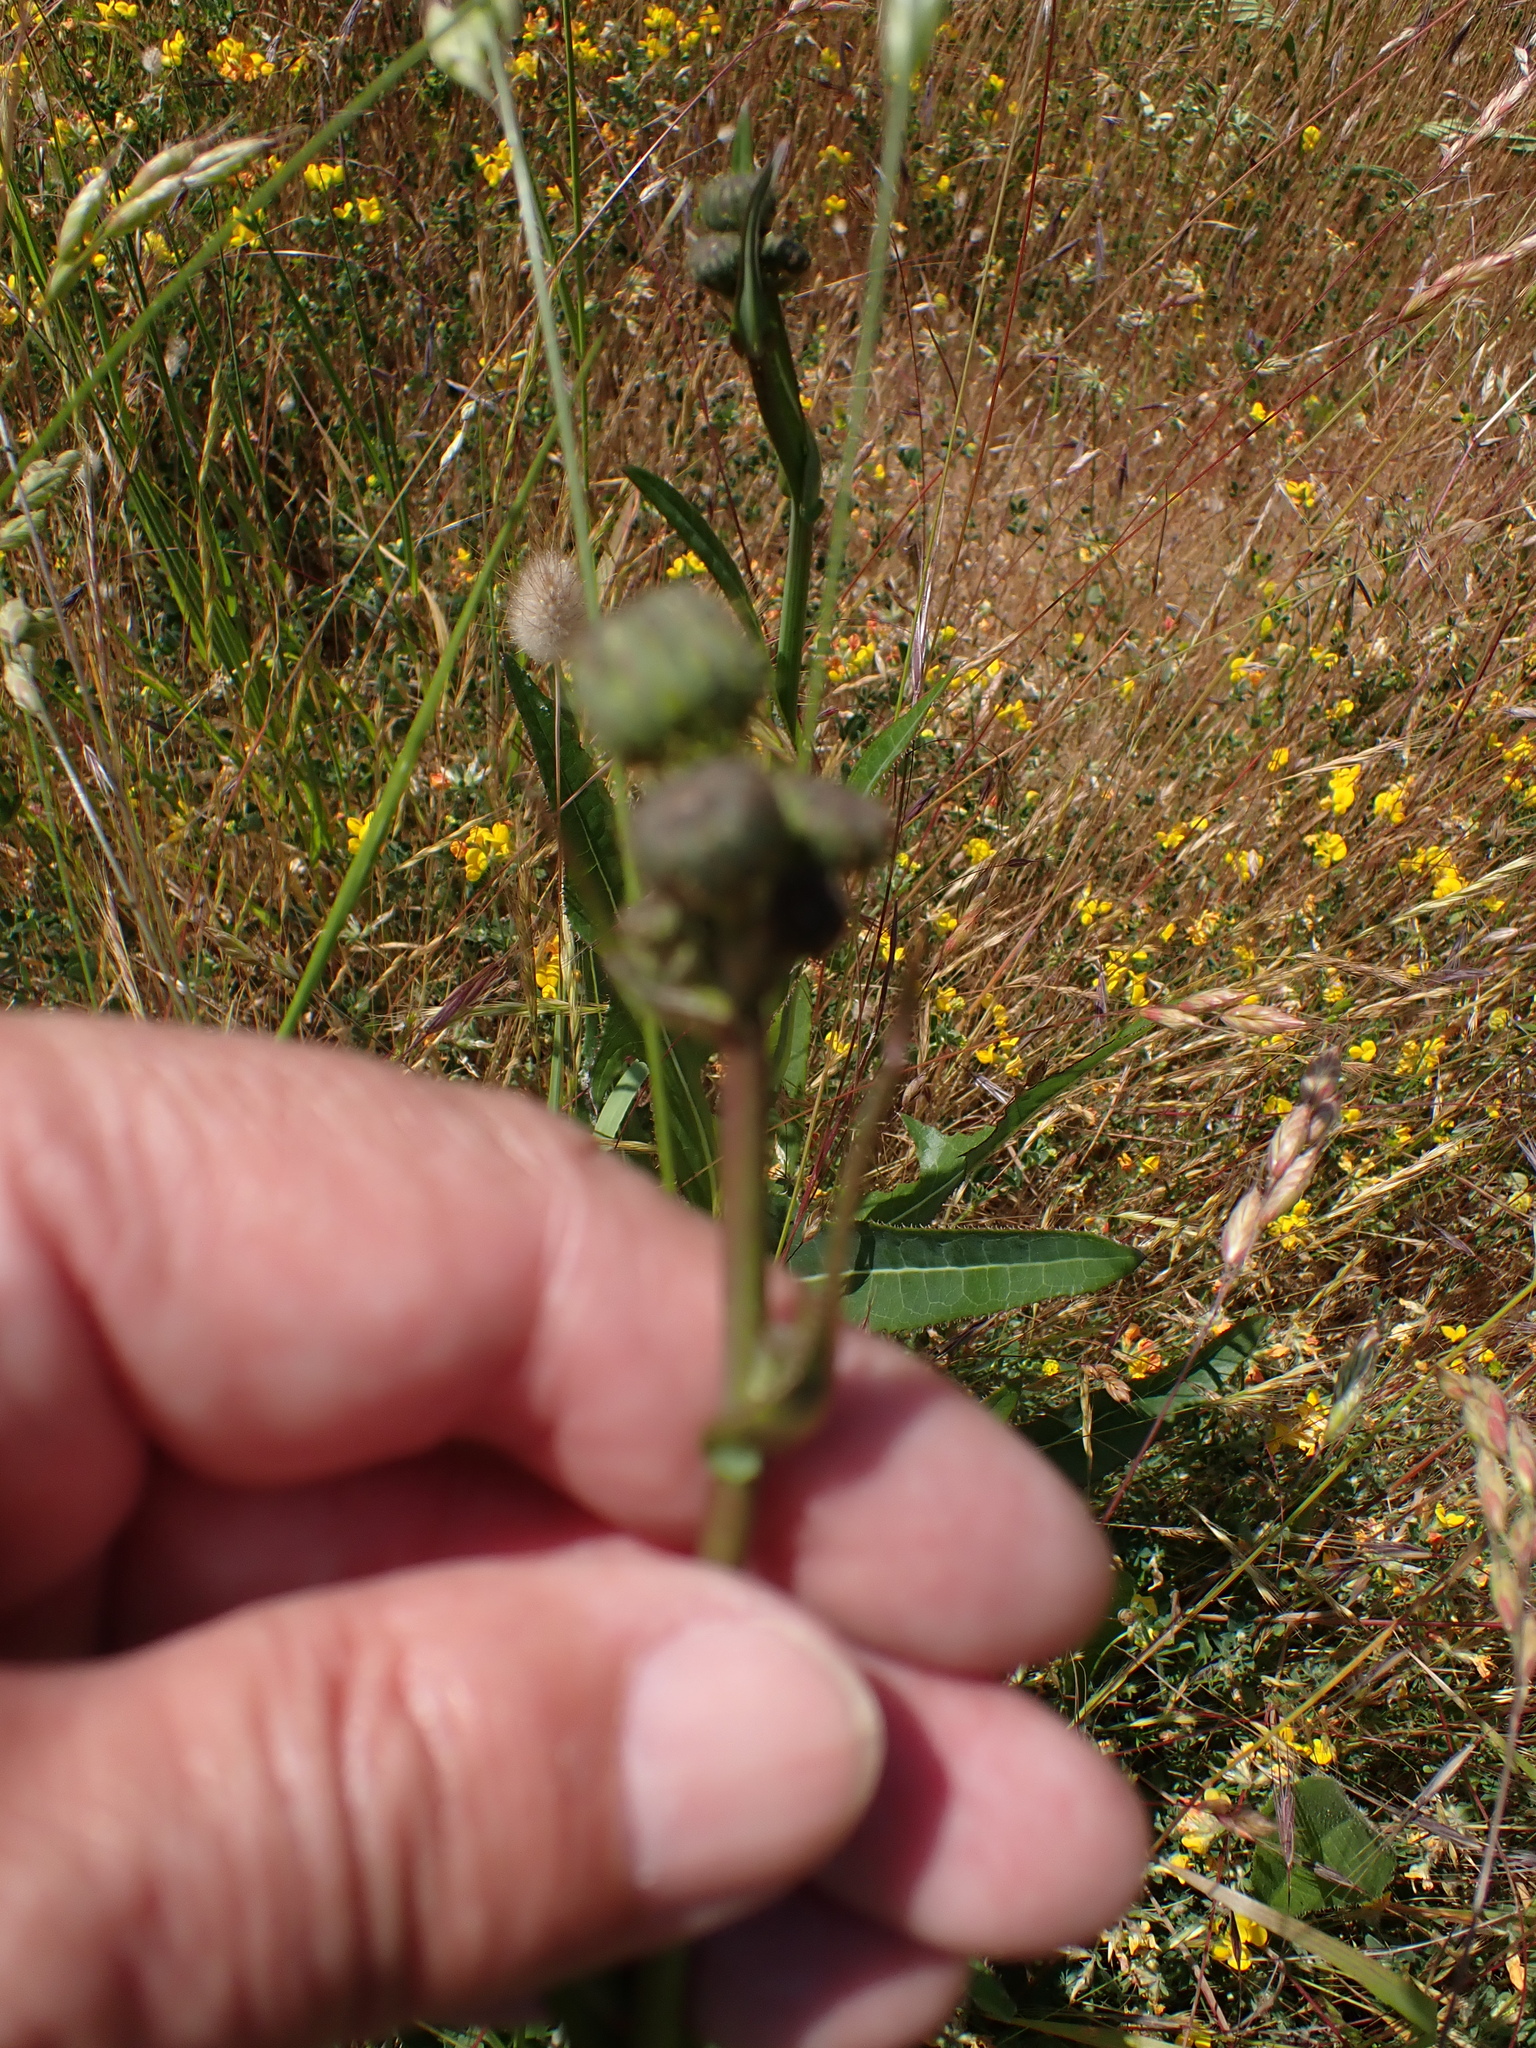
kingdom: Plantae
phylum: Tracheophyta
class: Magnoliopsida
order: Asterales
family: Asteraceae
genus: Sonchus
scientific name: Sonchus arvensis
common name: Perennial sow-thistle
